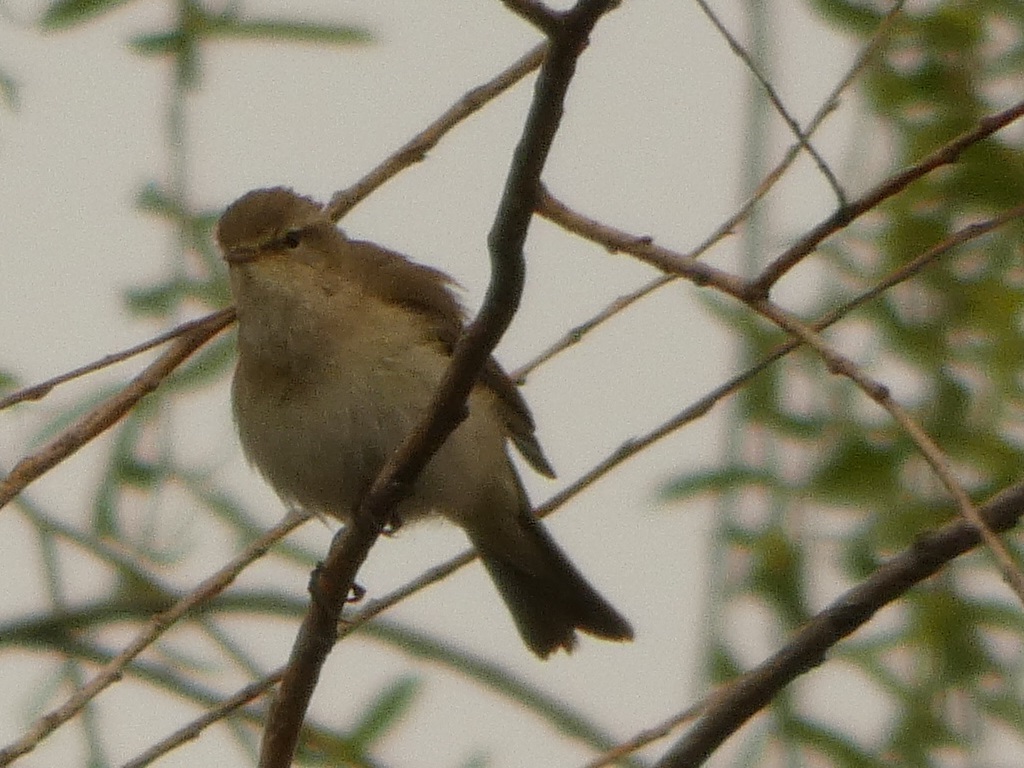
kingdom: Animalia
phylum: Chordata
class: Aves
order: Passeriformes
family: Phylloscopidae
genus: Phylloscopus
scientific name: Phylloscopus collybita
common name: Common chiffchaff
